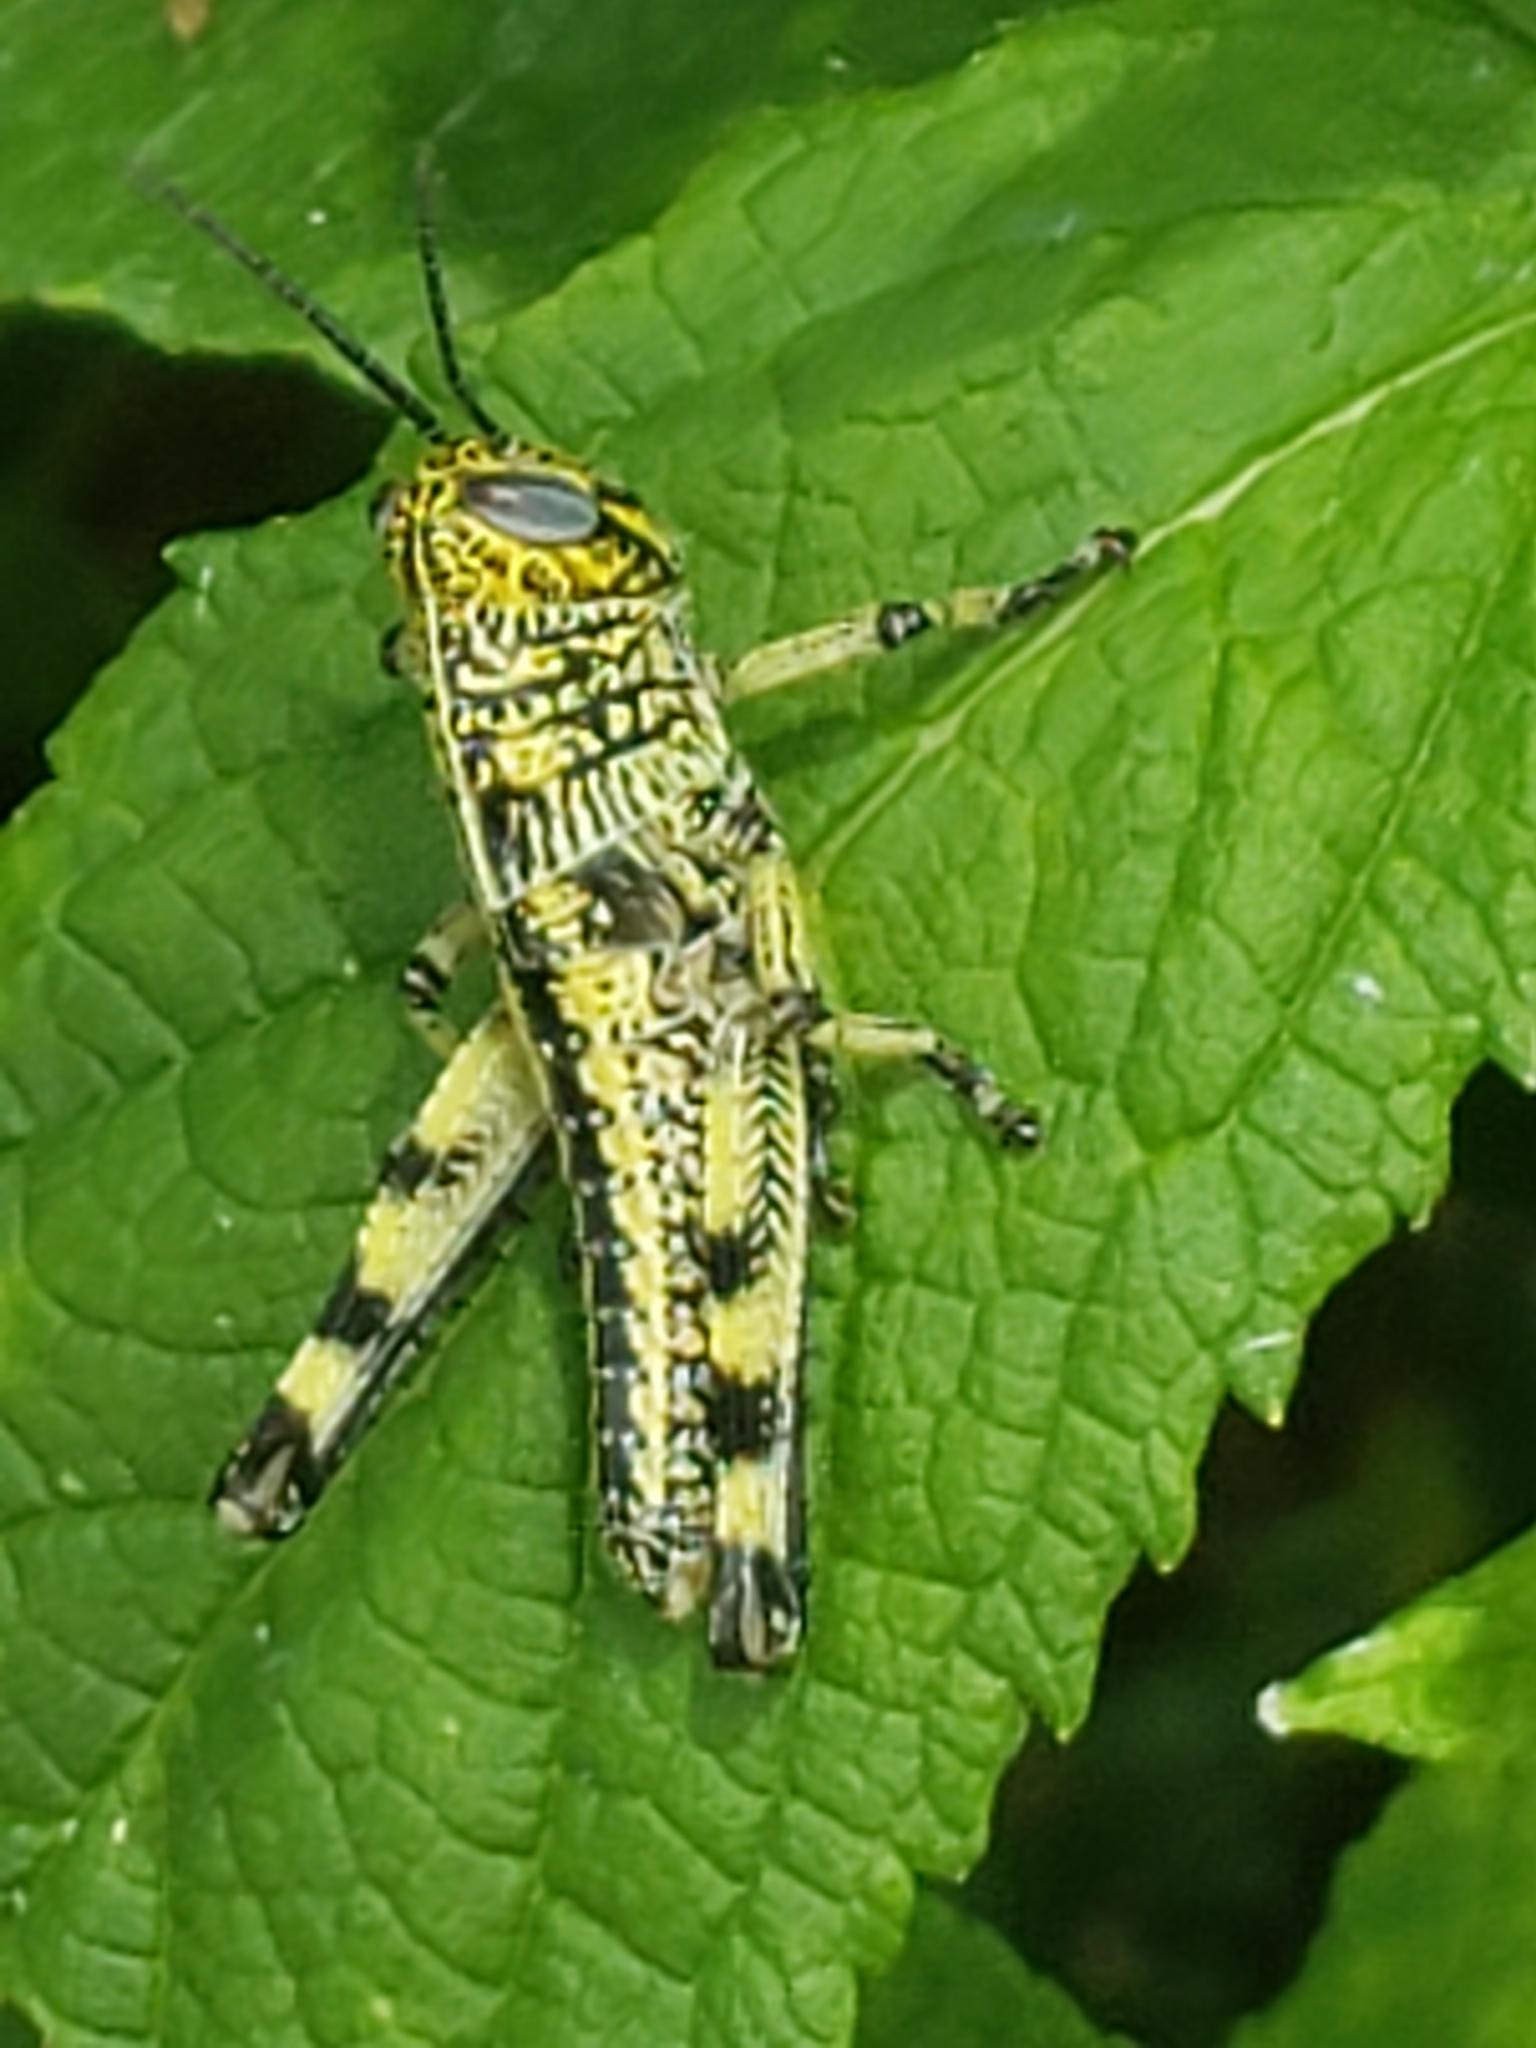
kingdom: Animalia
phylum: Arthropoda
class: Insecta
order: Orthoptera
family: Acrididae
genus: Schistocerca
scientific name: Schistocerca lineata
